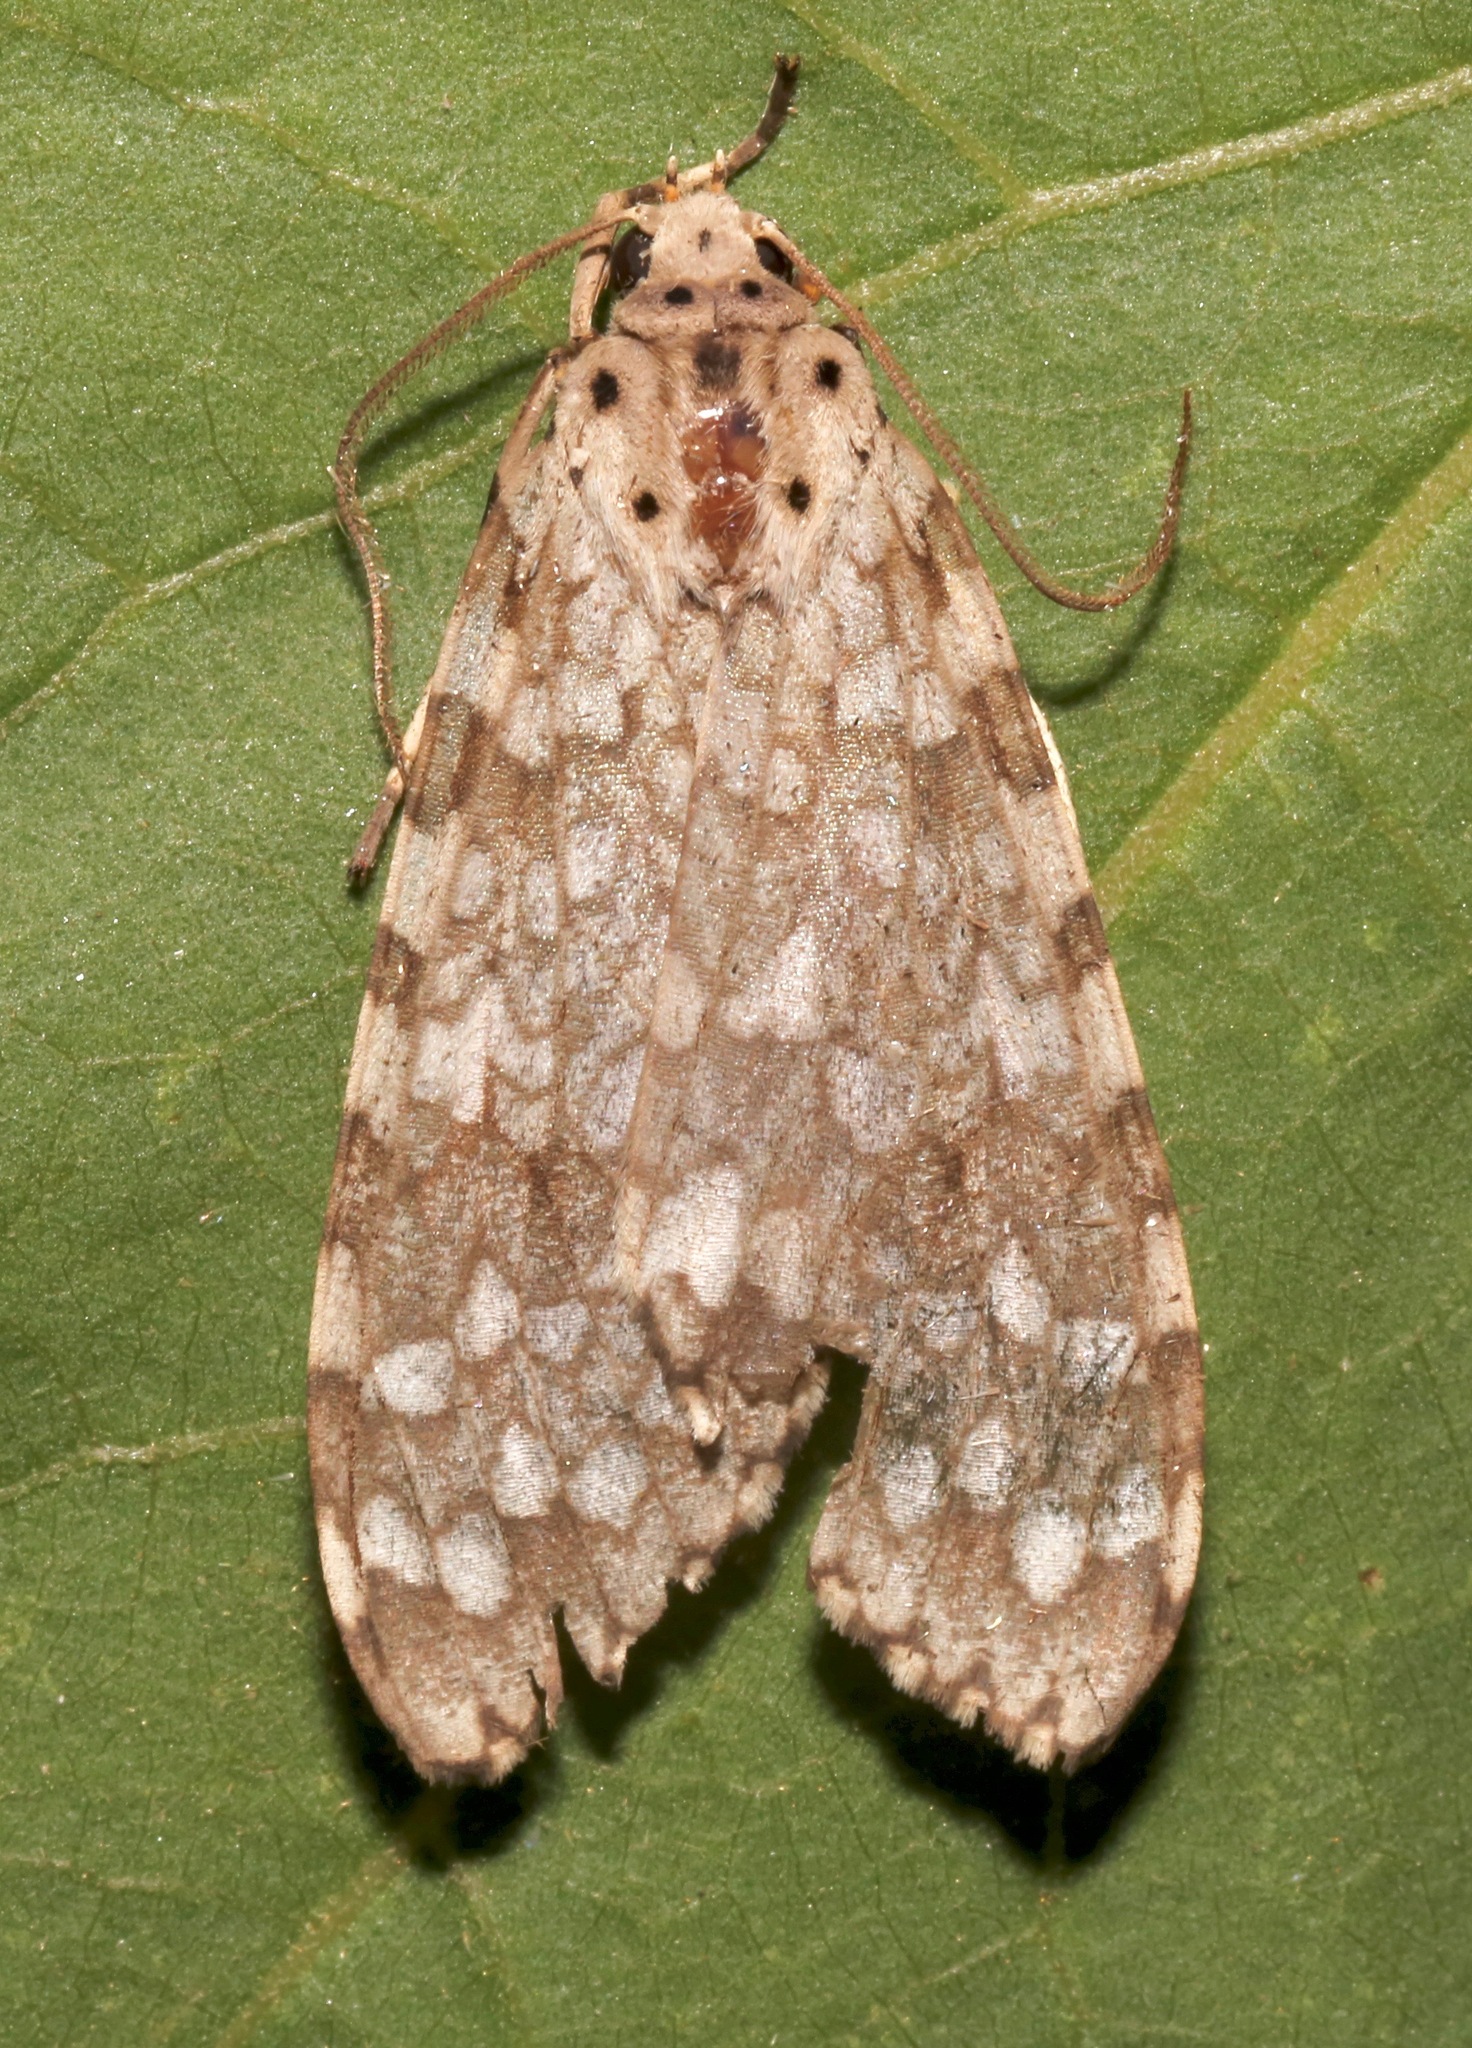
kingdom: Animalia
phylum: Arthropoda
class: Insecta
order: Lepidoptera
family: Erebidae
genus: Carales
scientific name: Carales arizonensis
